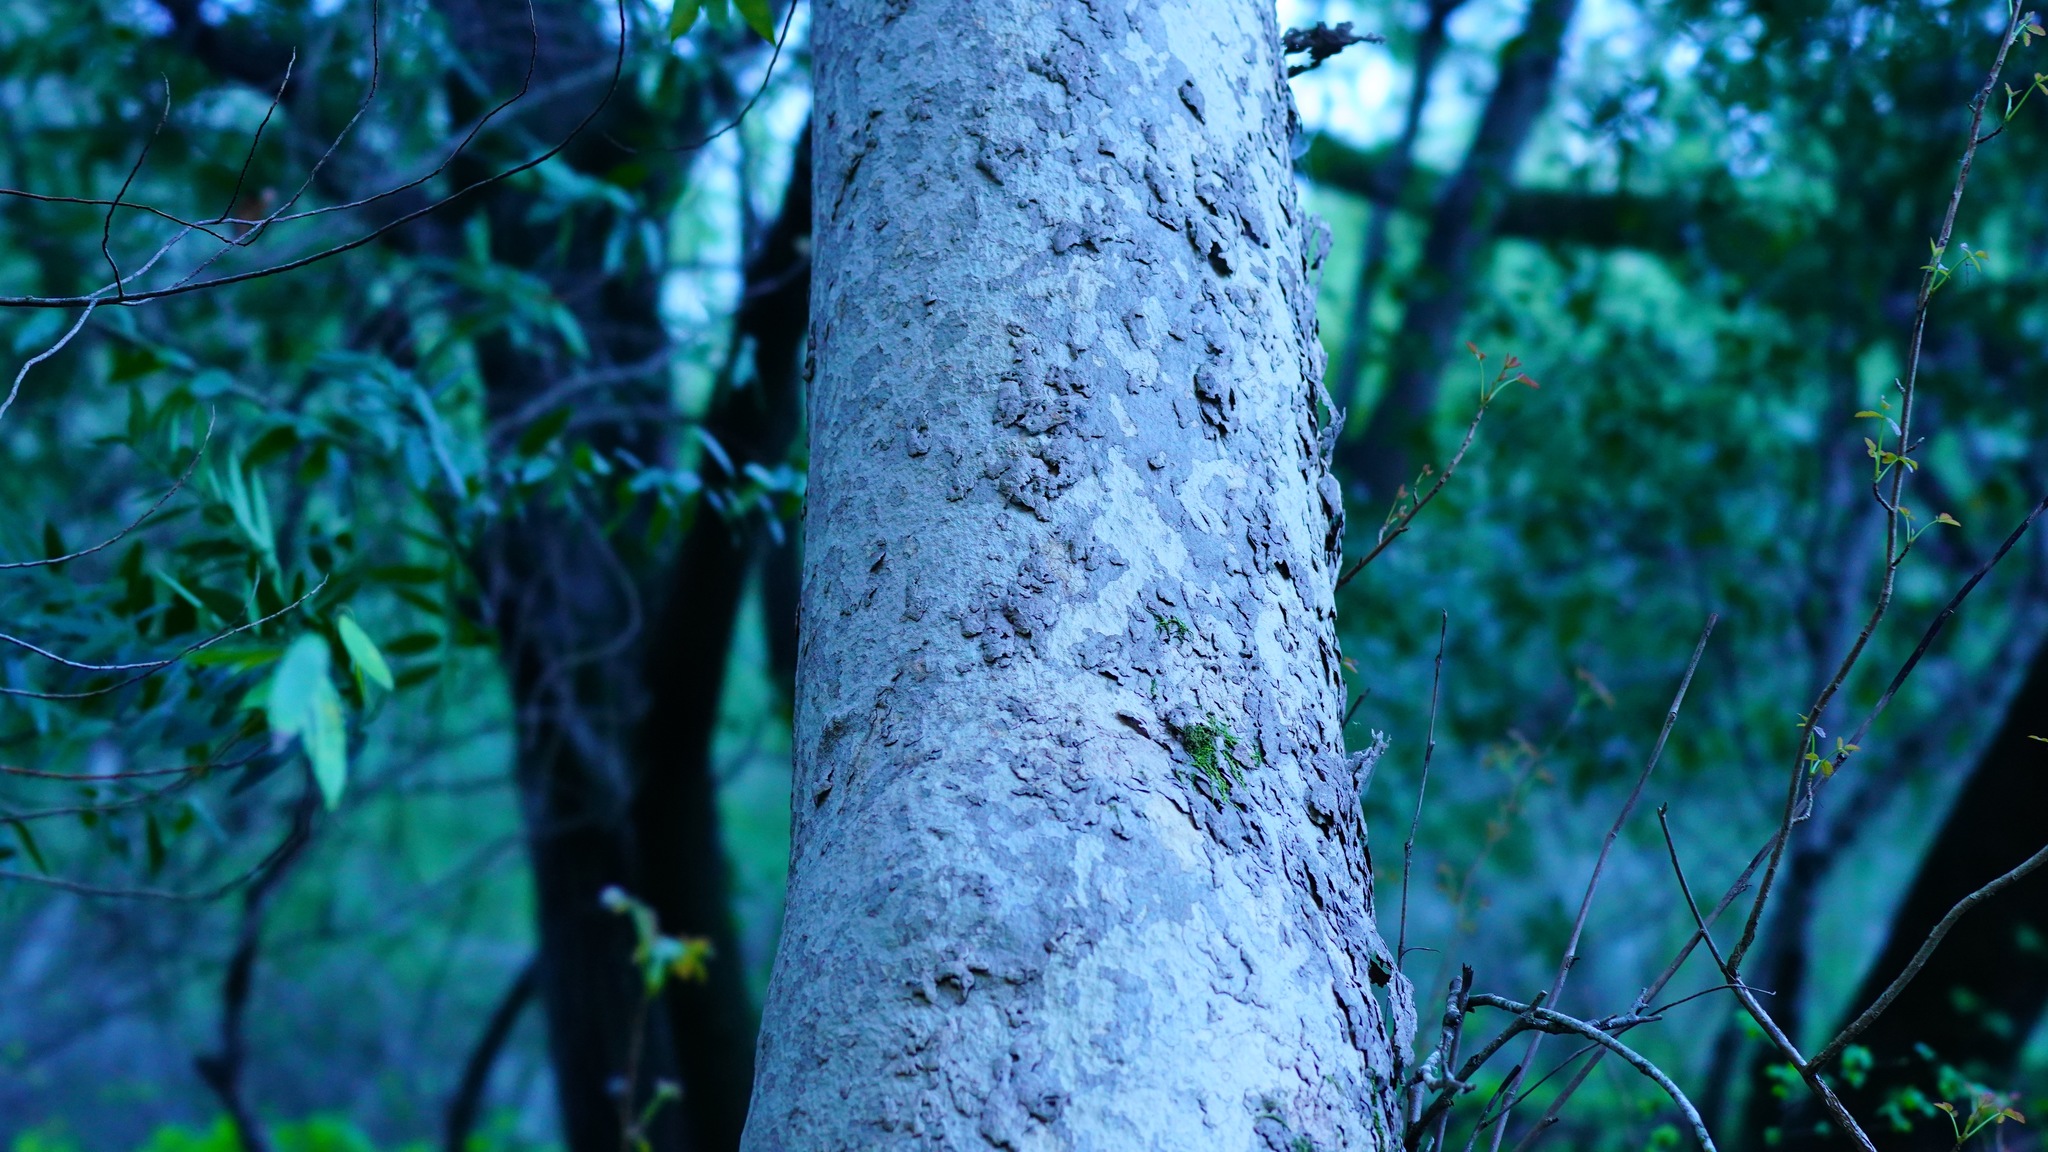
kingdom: Plantae
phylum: Tracheophyta
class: Magnoliopsida
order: Proteales
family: Platanaceae
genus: Platanus
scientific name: Platanus racemosa
